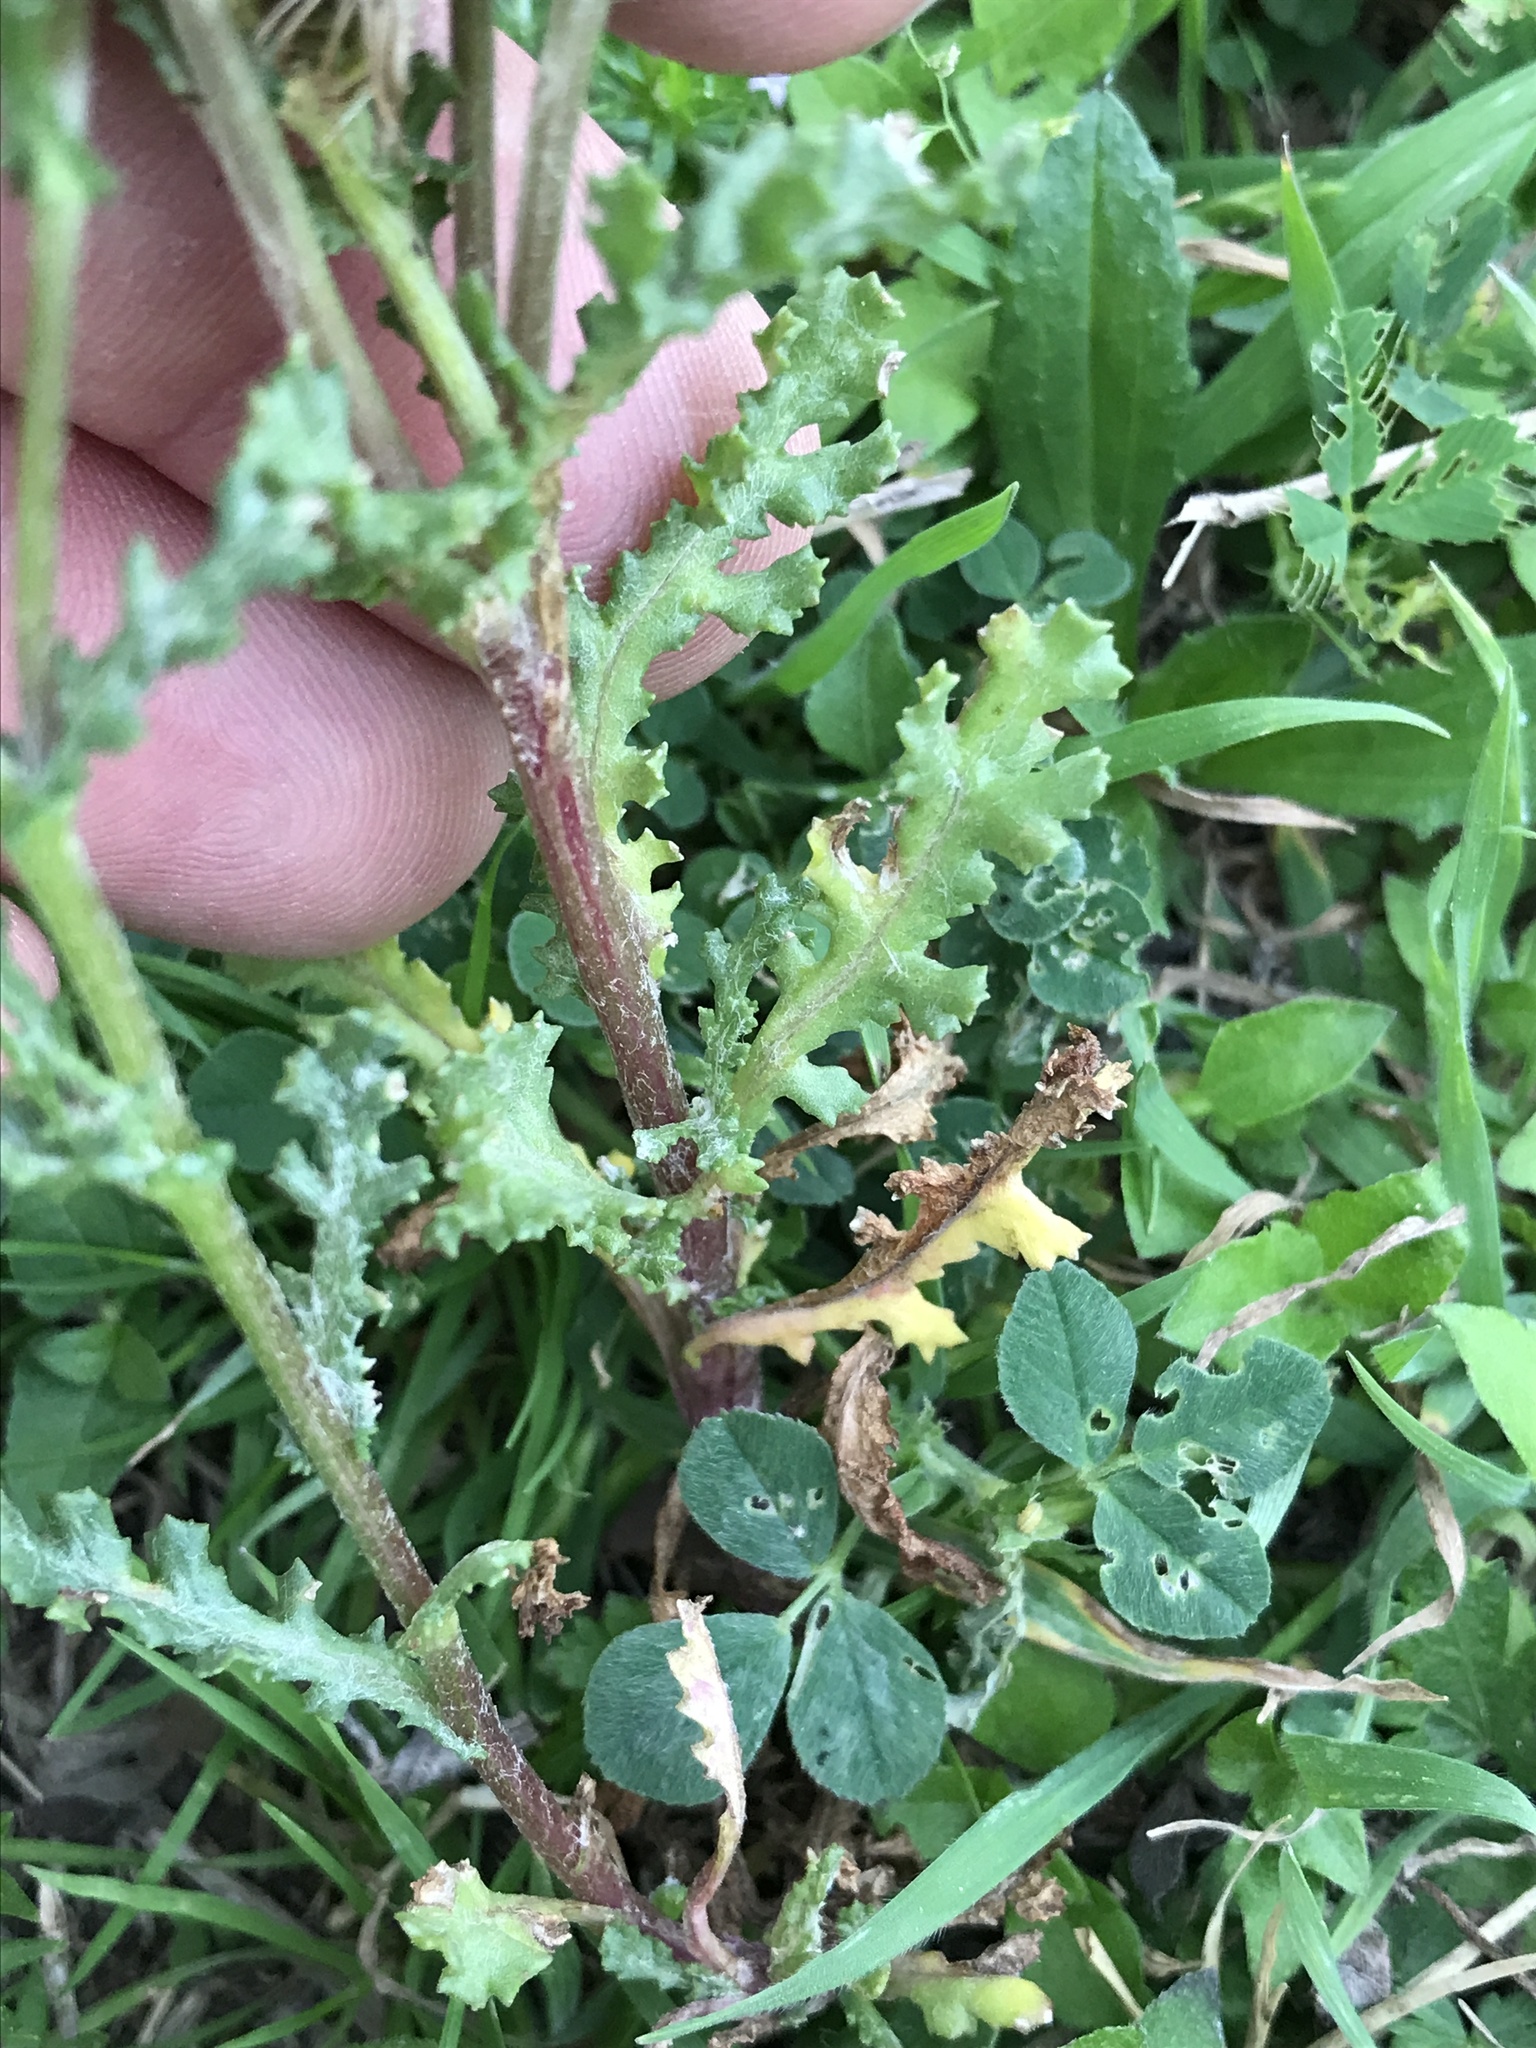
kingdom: Plantae
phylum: Tracheophyta
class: Magnoliopsida
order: Asterales
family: Asteraceae
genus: Senecio
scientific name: Senecio vulgaris
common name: Old-man-in-the-spring
